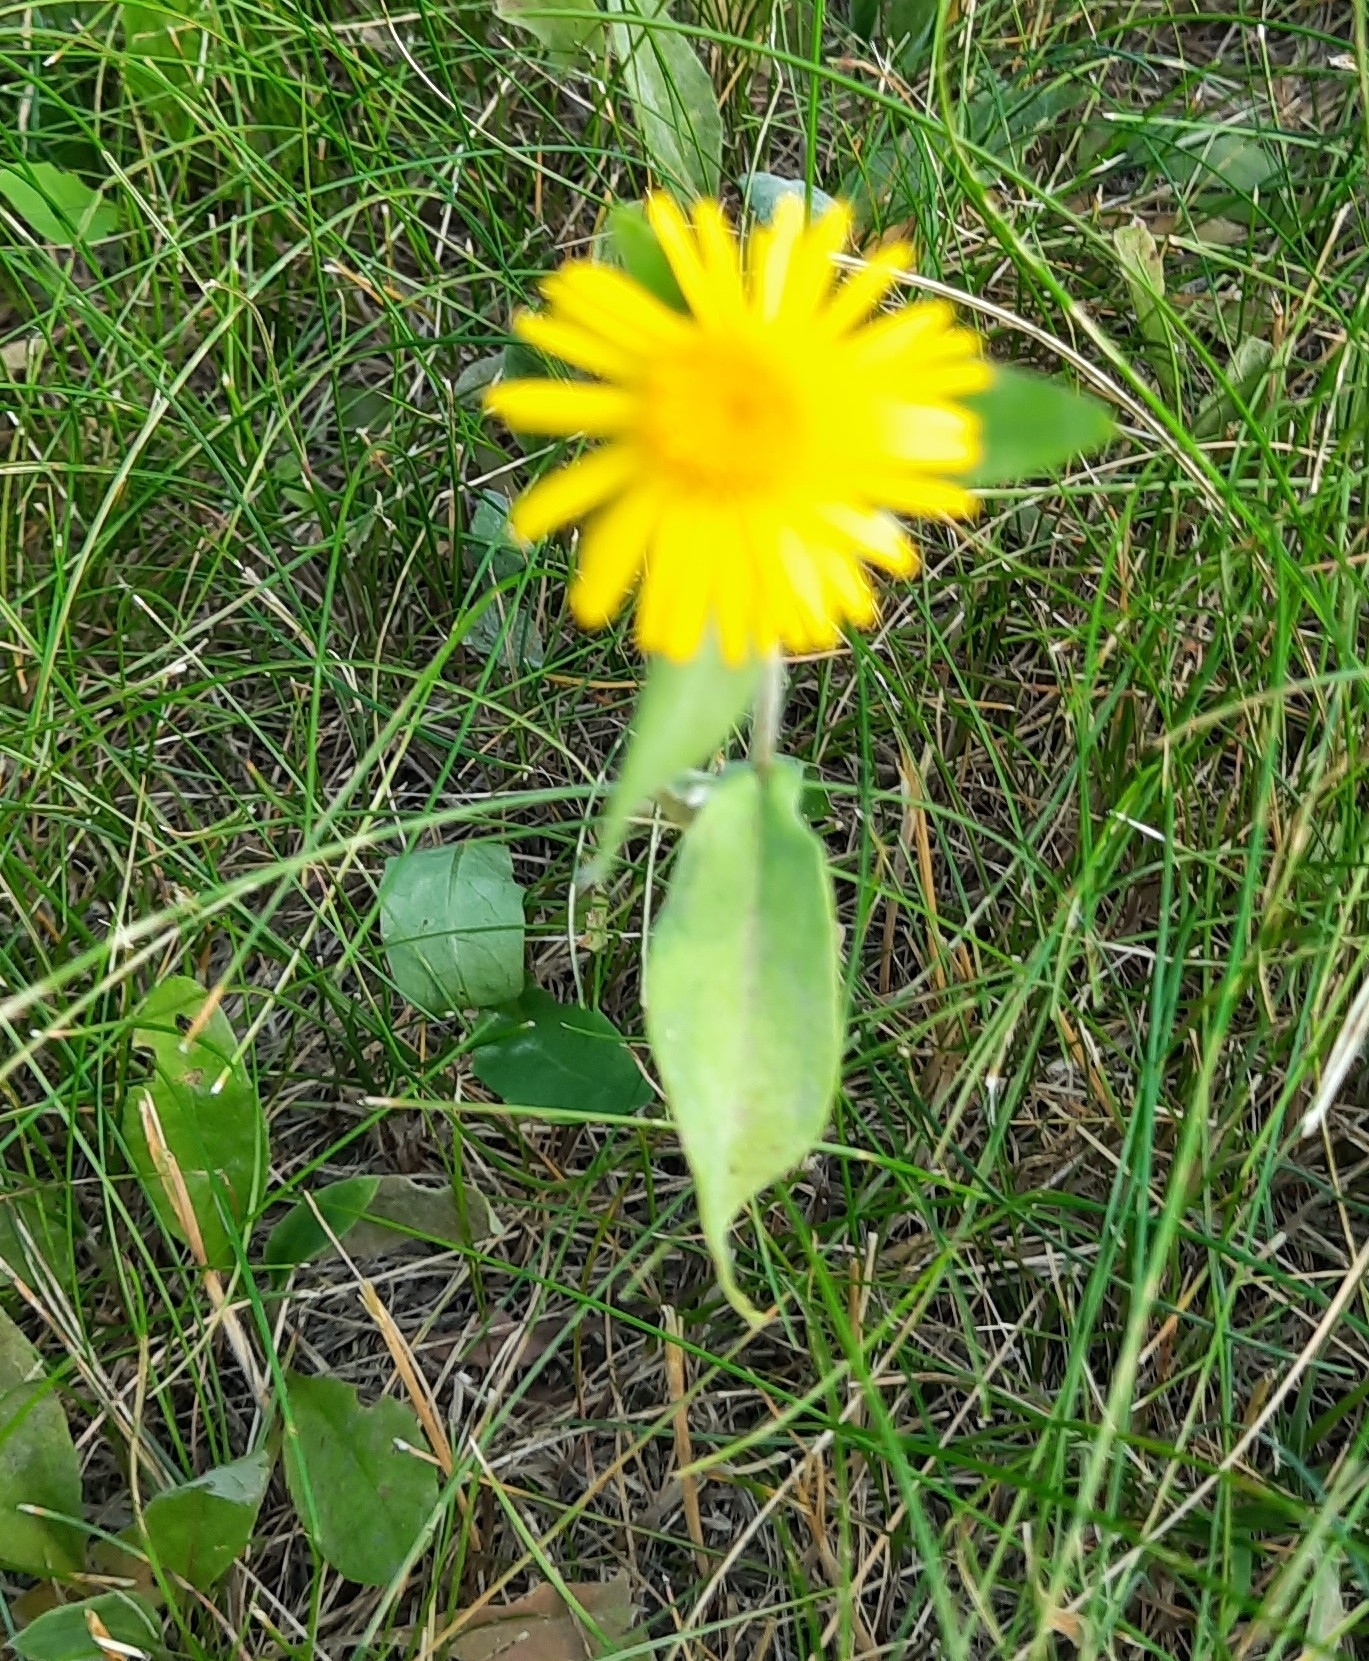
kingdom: Plantae
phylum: Tracheophyta
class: Magnoliopsida
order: Asterales
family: Asteraceae
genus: Pentanema
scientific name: Pentanema britannicum
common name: British elecampane
